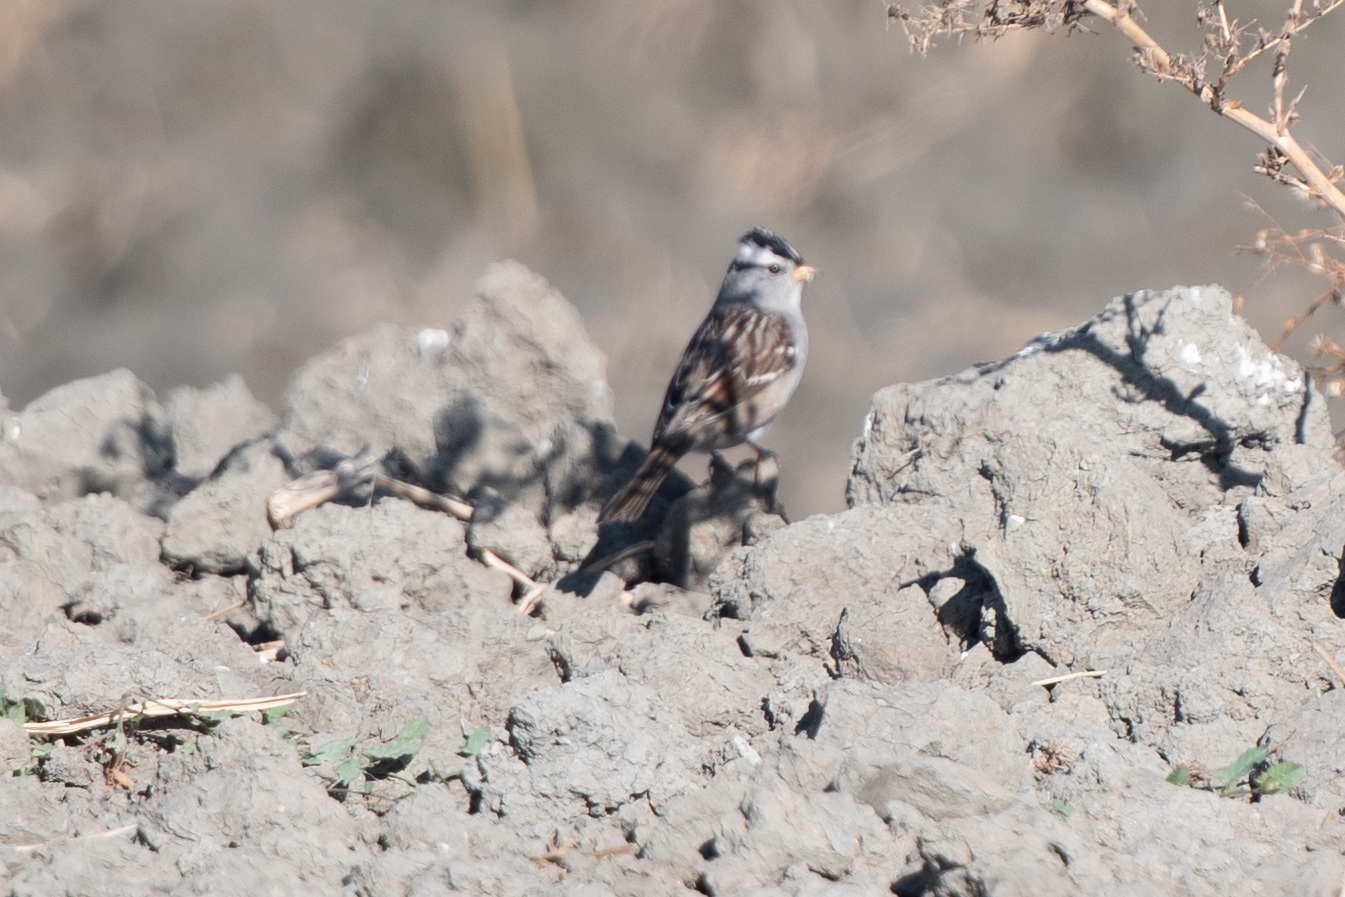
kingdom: Animalia
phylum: Chordata
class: Aves
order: Passeriformes
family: Passerellidae
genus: Zonotrichia
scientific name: Zonotrichia leucophrys
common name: White-crowned sparrow
